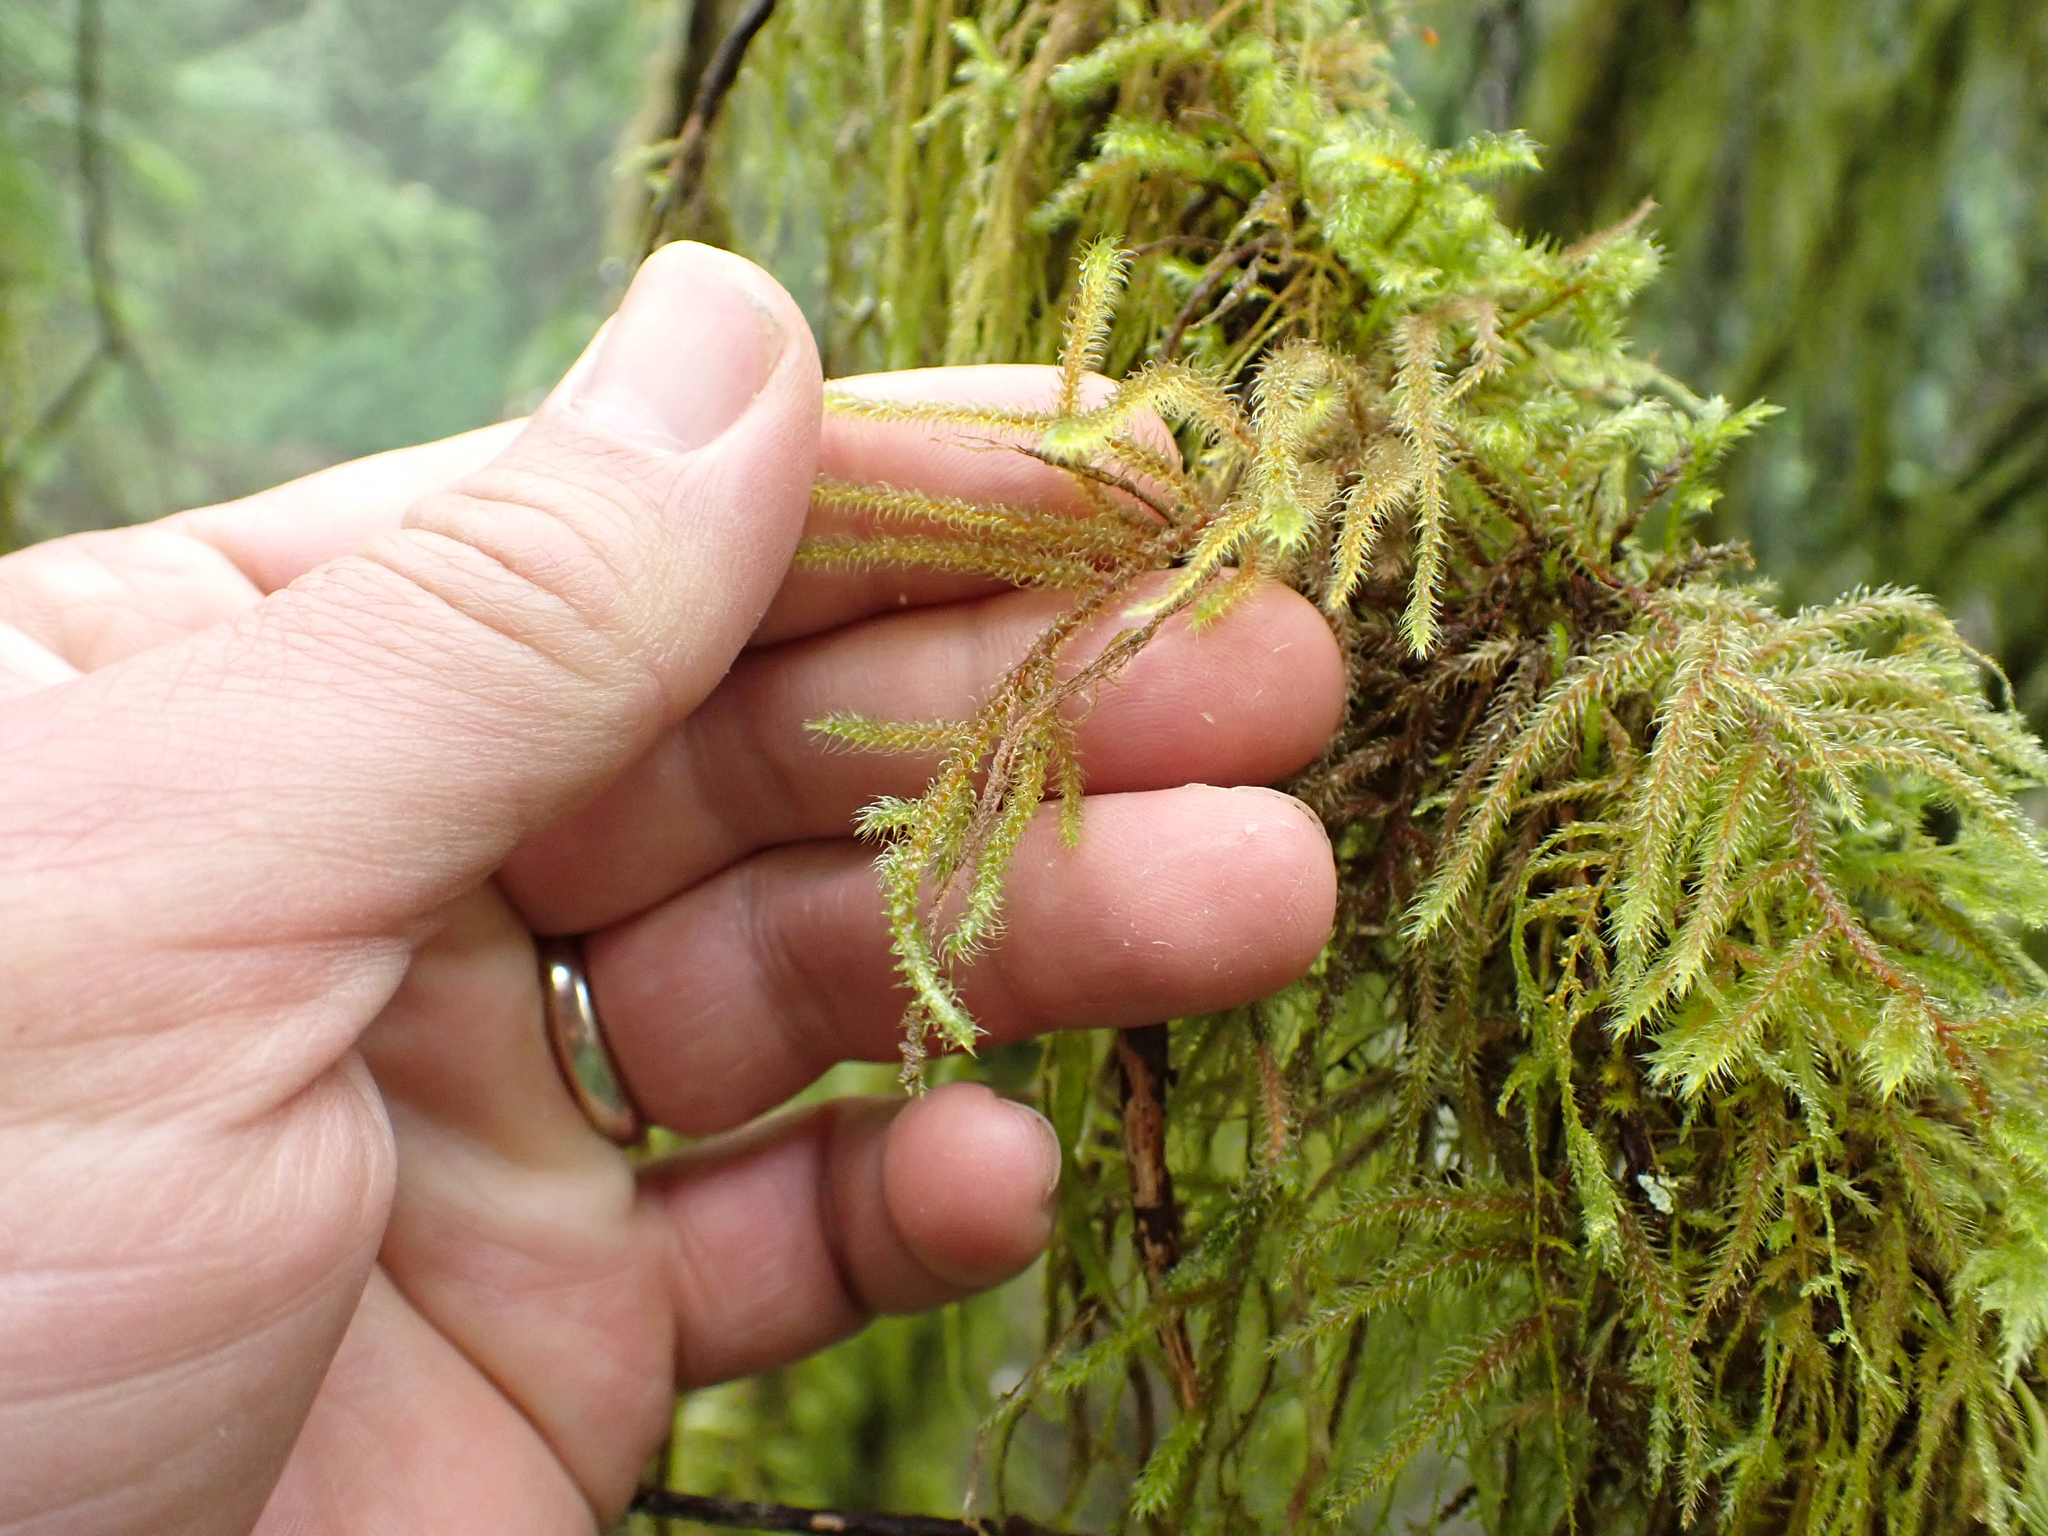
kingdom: Plantae
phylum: Bryophyta
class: Bryopsida
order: Hypnales
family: Hylocomiaceae
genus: Rhytidiadelphus
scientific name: Rhytidiadelphus loreus
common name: Lanky moss
